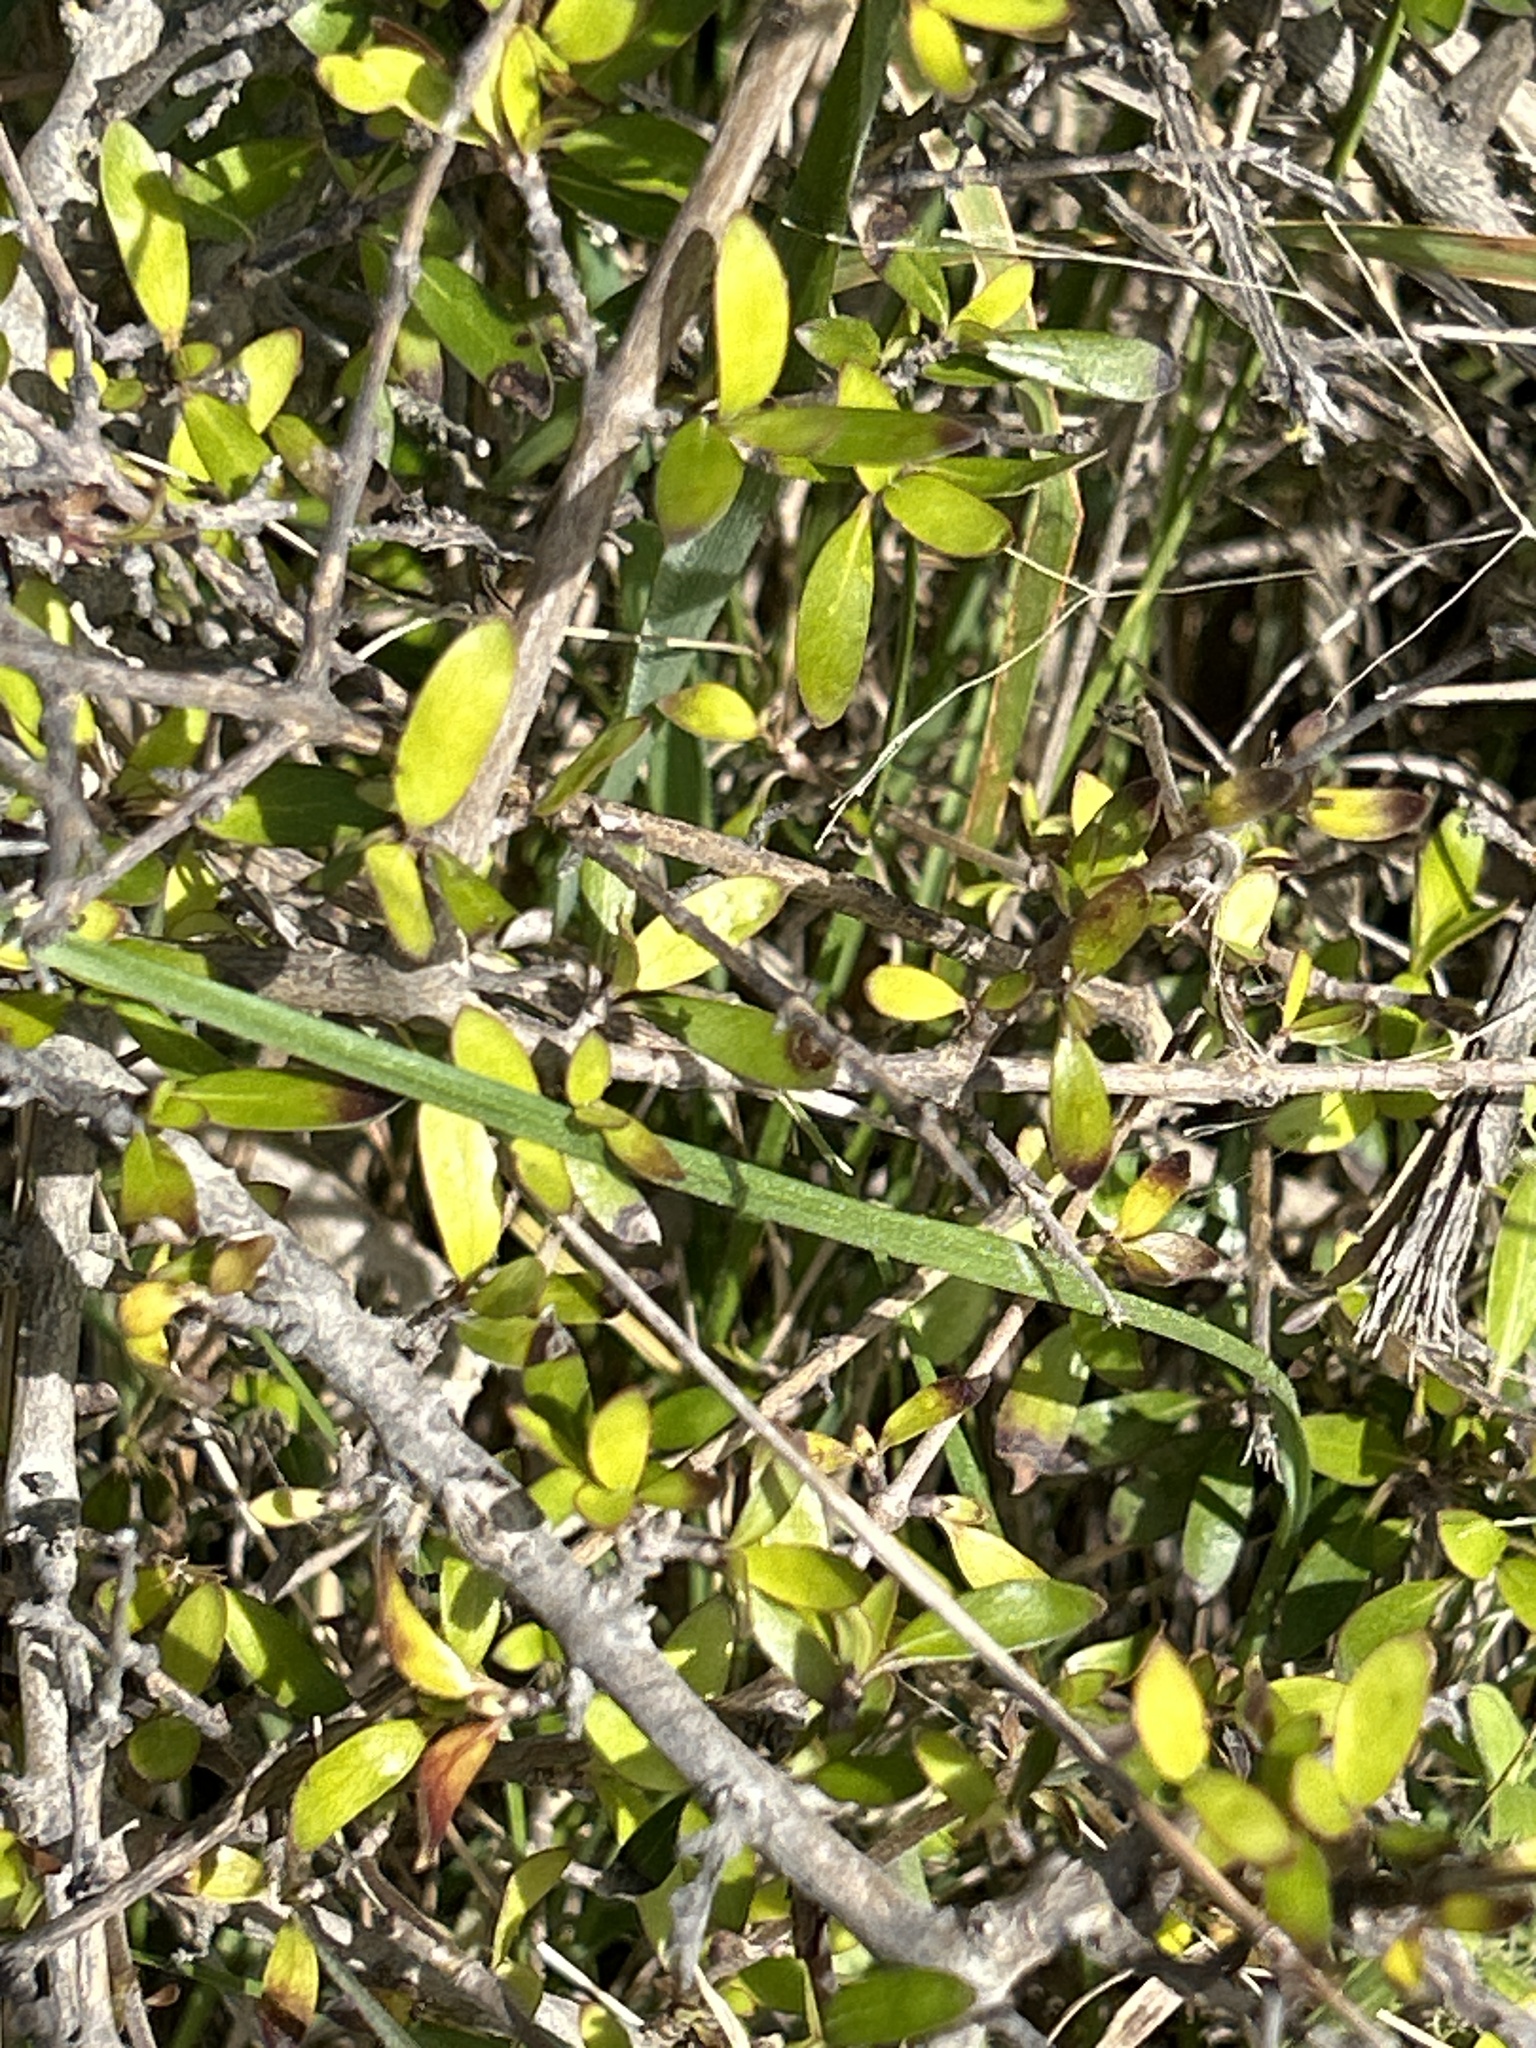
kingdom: Plantae
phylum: Tracheophyta
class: Magnoliopsida
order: Gentianales
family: Rubiaceae
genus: Coprosma
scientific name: Coprosma propinqua
